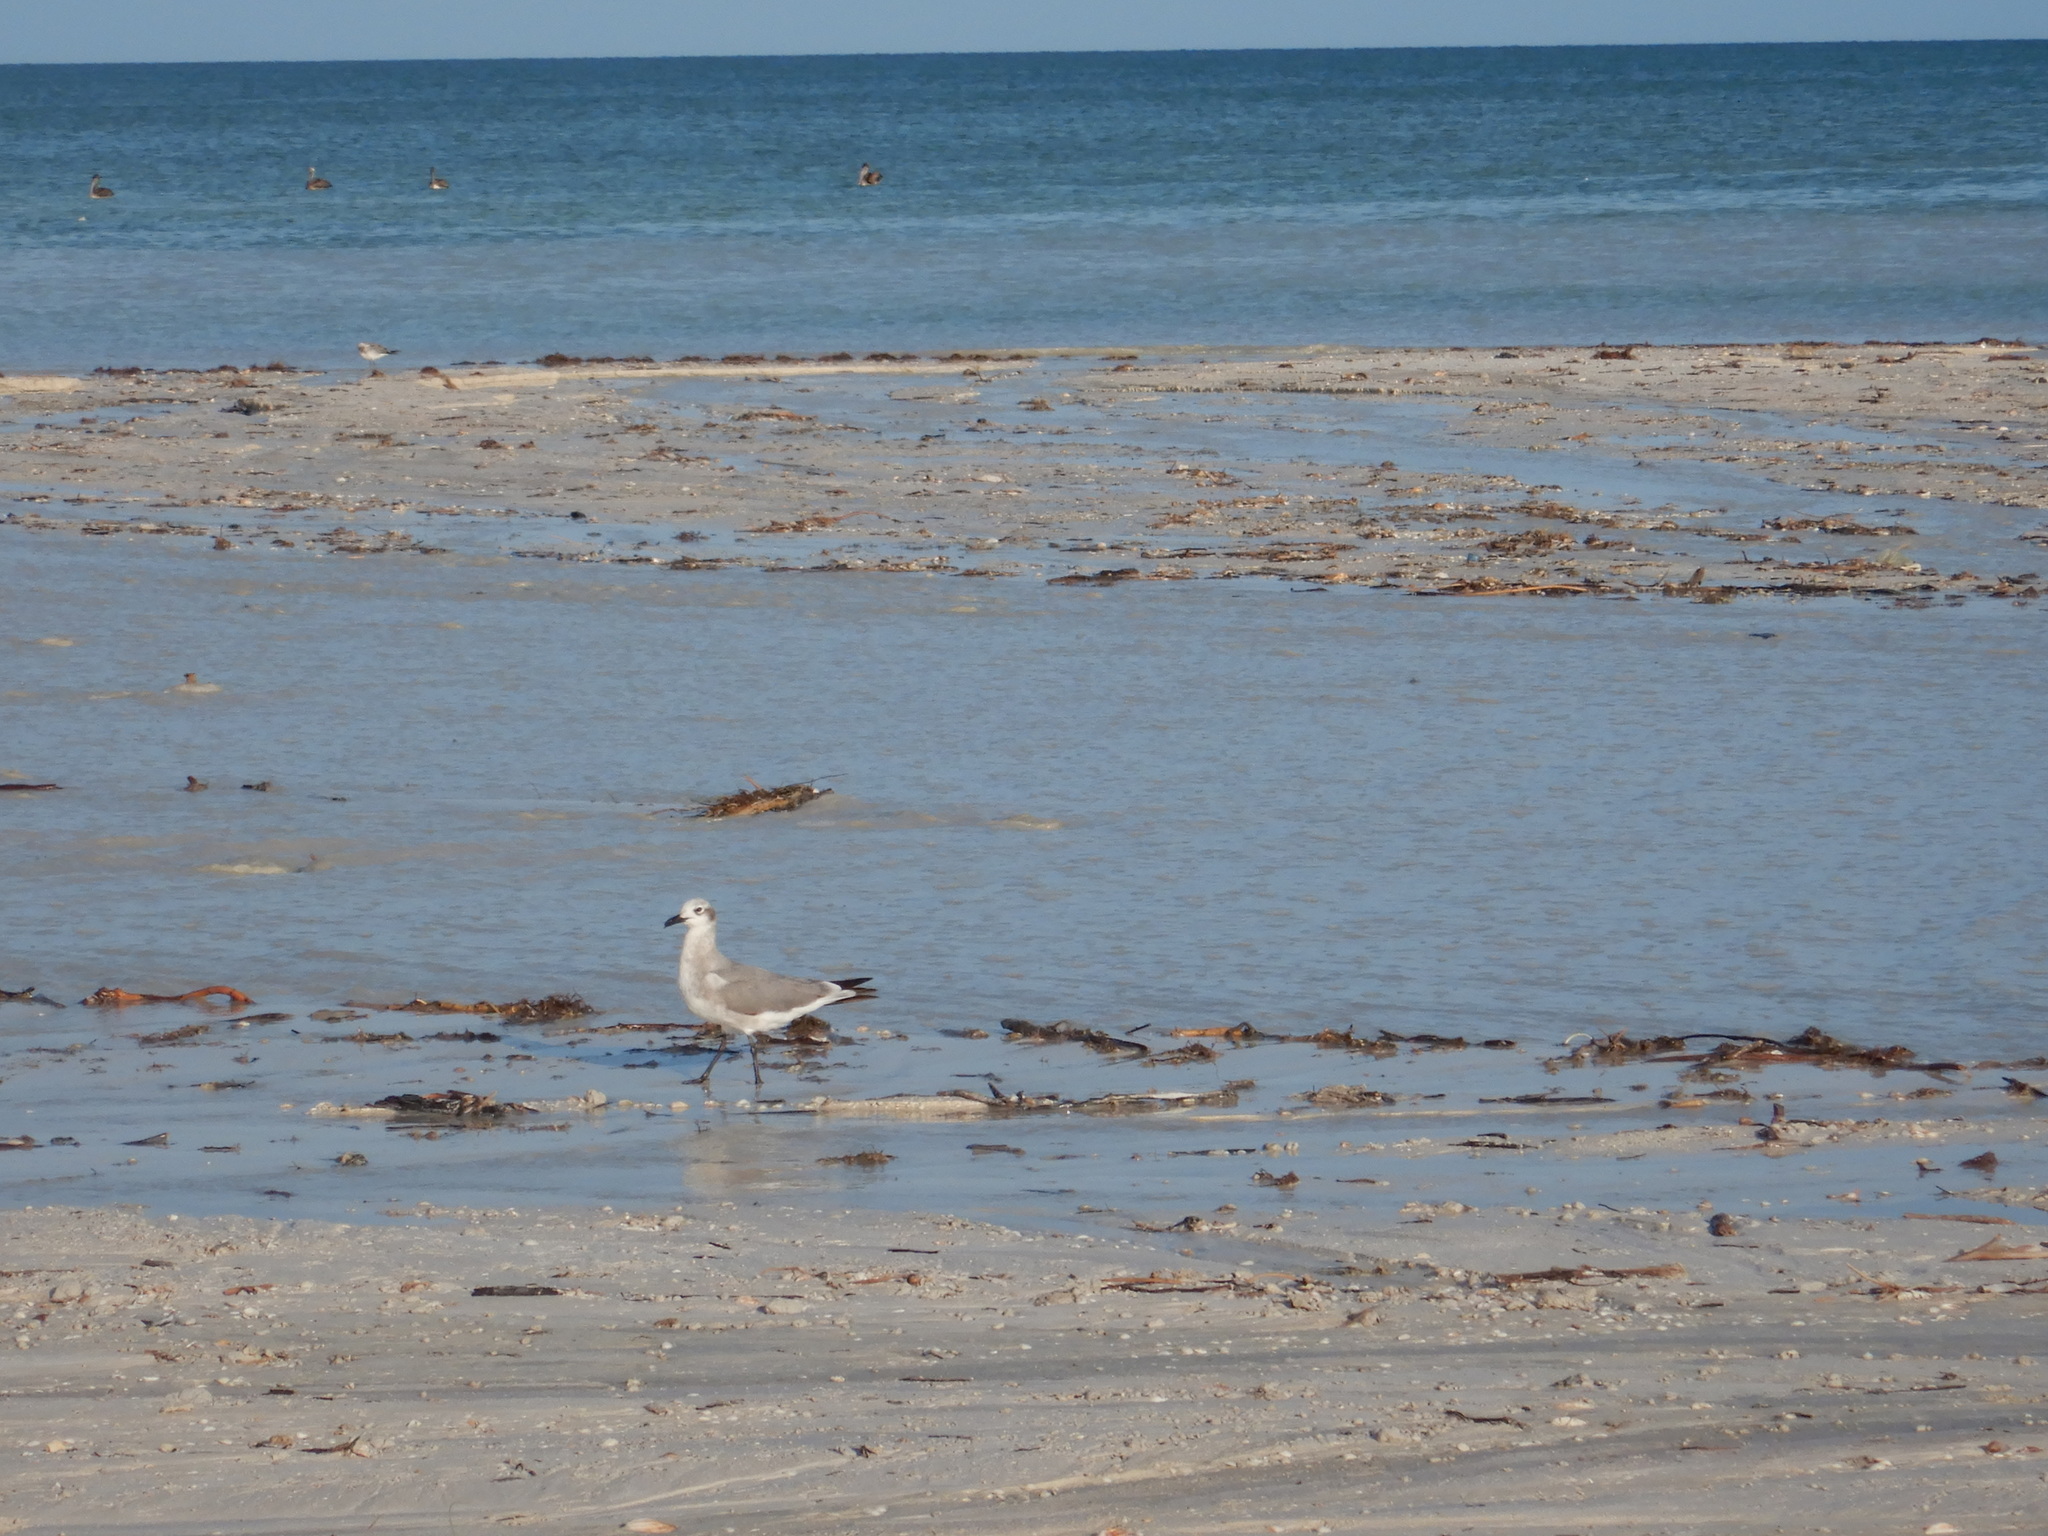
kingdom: Animalia
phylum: Chordata
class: Aves
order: Charadriiformes
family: Laridae
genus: Leucophaeus
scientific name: Leucophaeus atricilla
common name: Laughing gull
